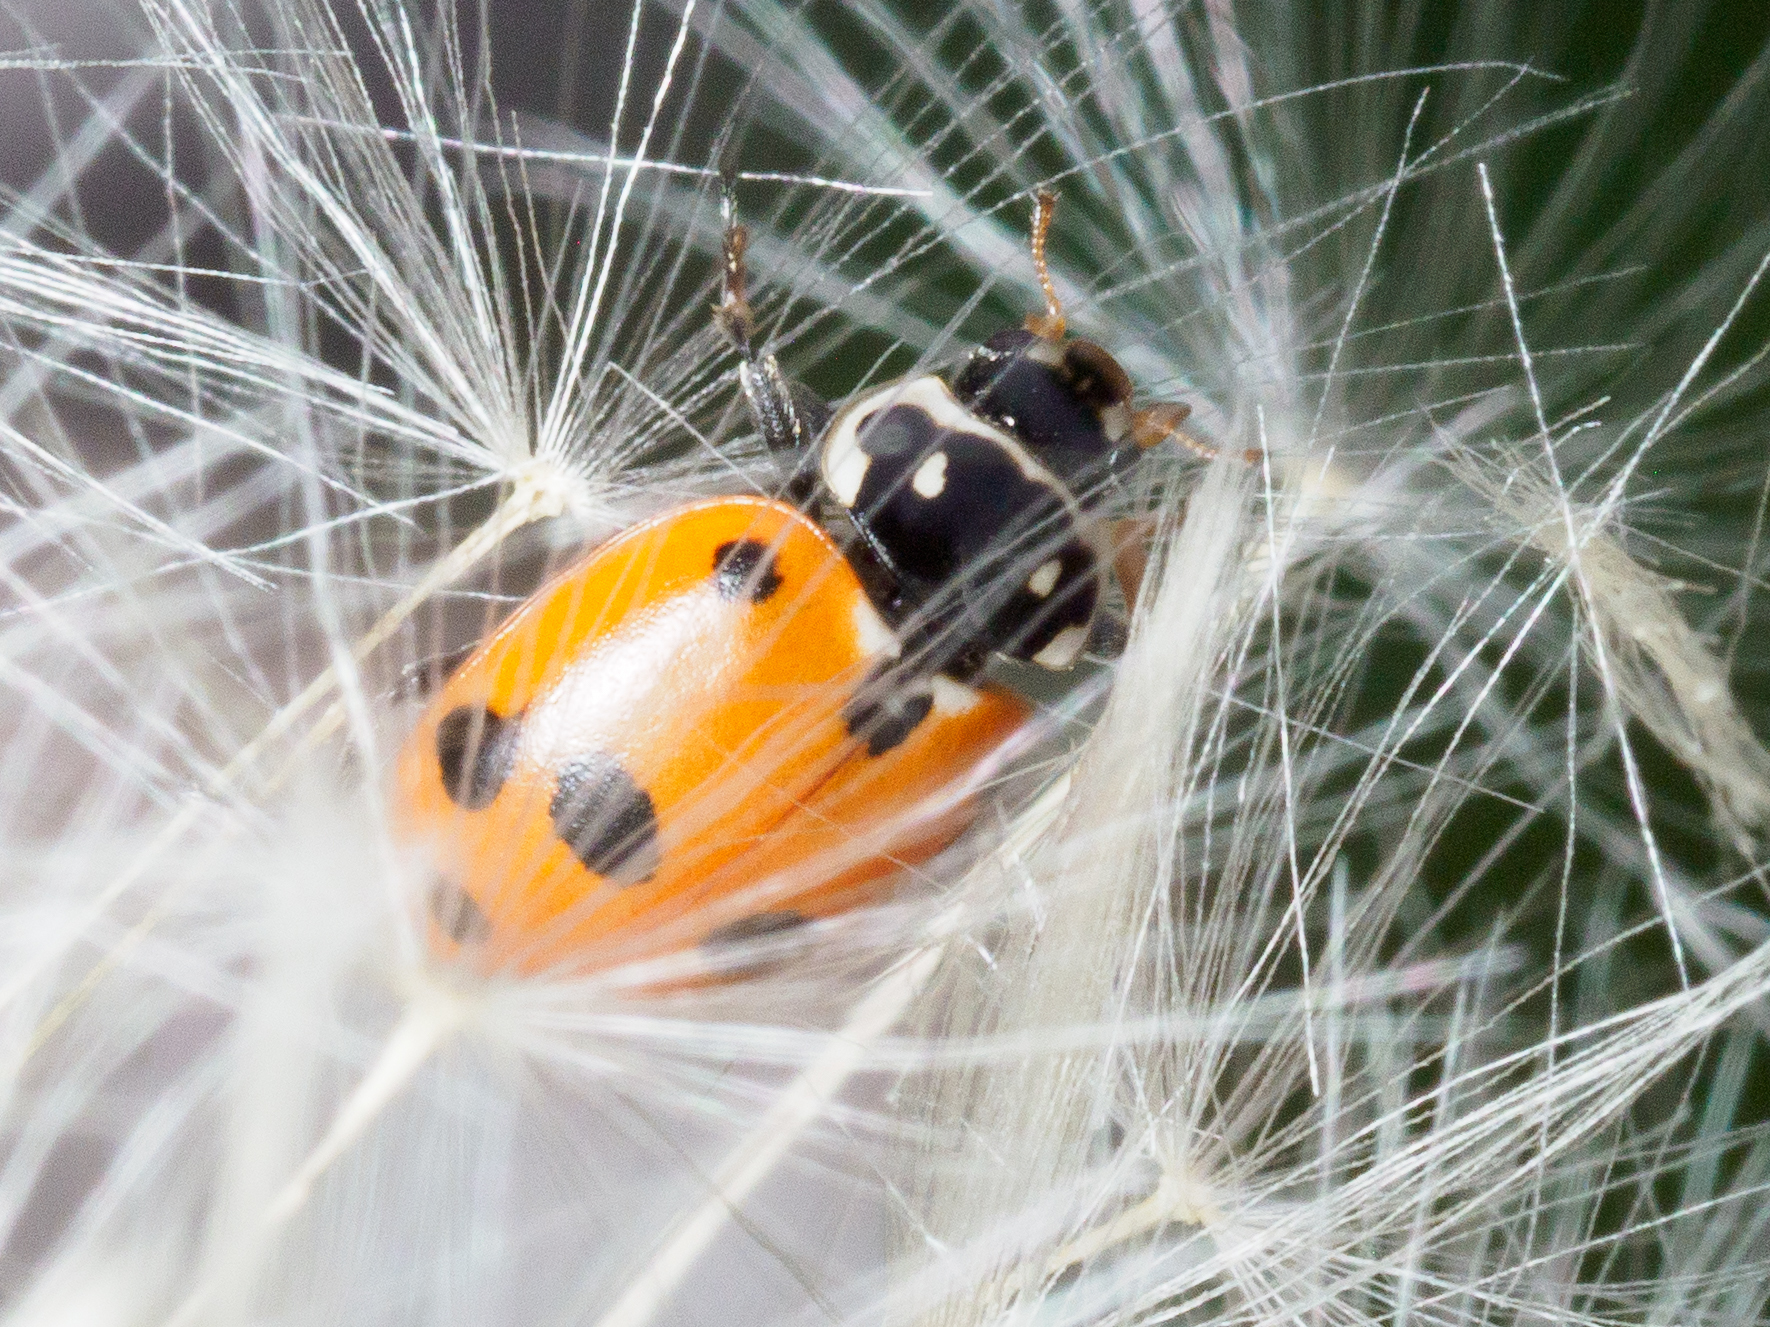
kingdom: Animalia
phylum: Arthropoda
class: Insecta
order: Coleoptera
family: Coccinellidae
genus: Hippodamia
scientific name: Hippodamia variegata
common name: Ladybird beetle
